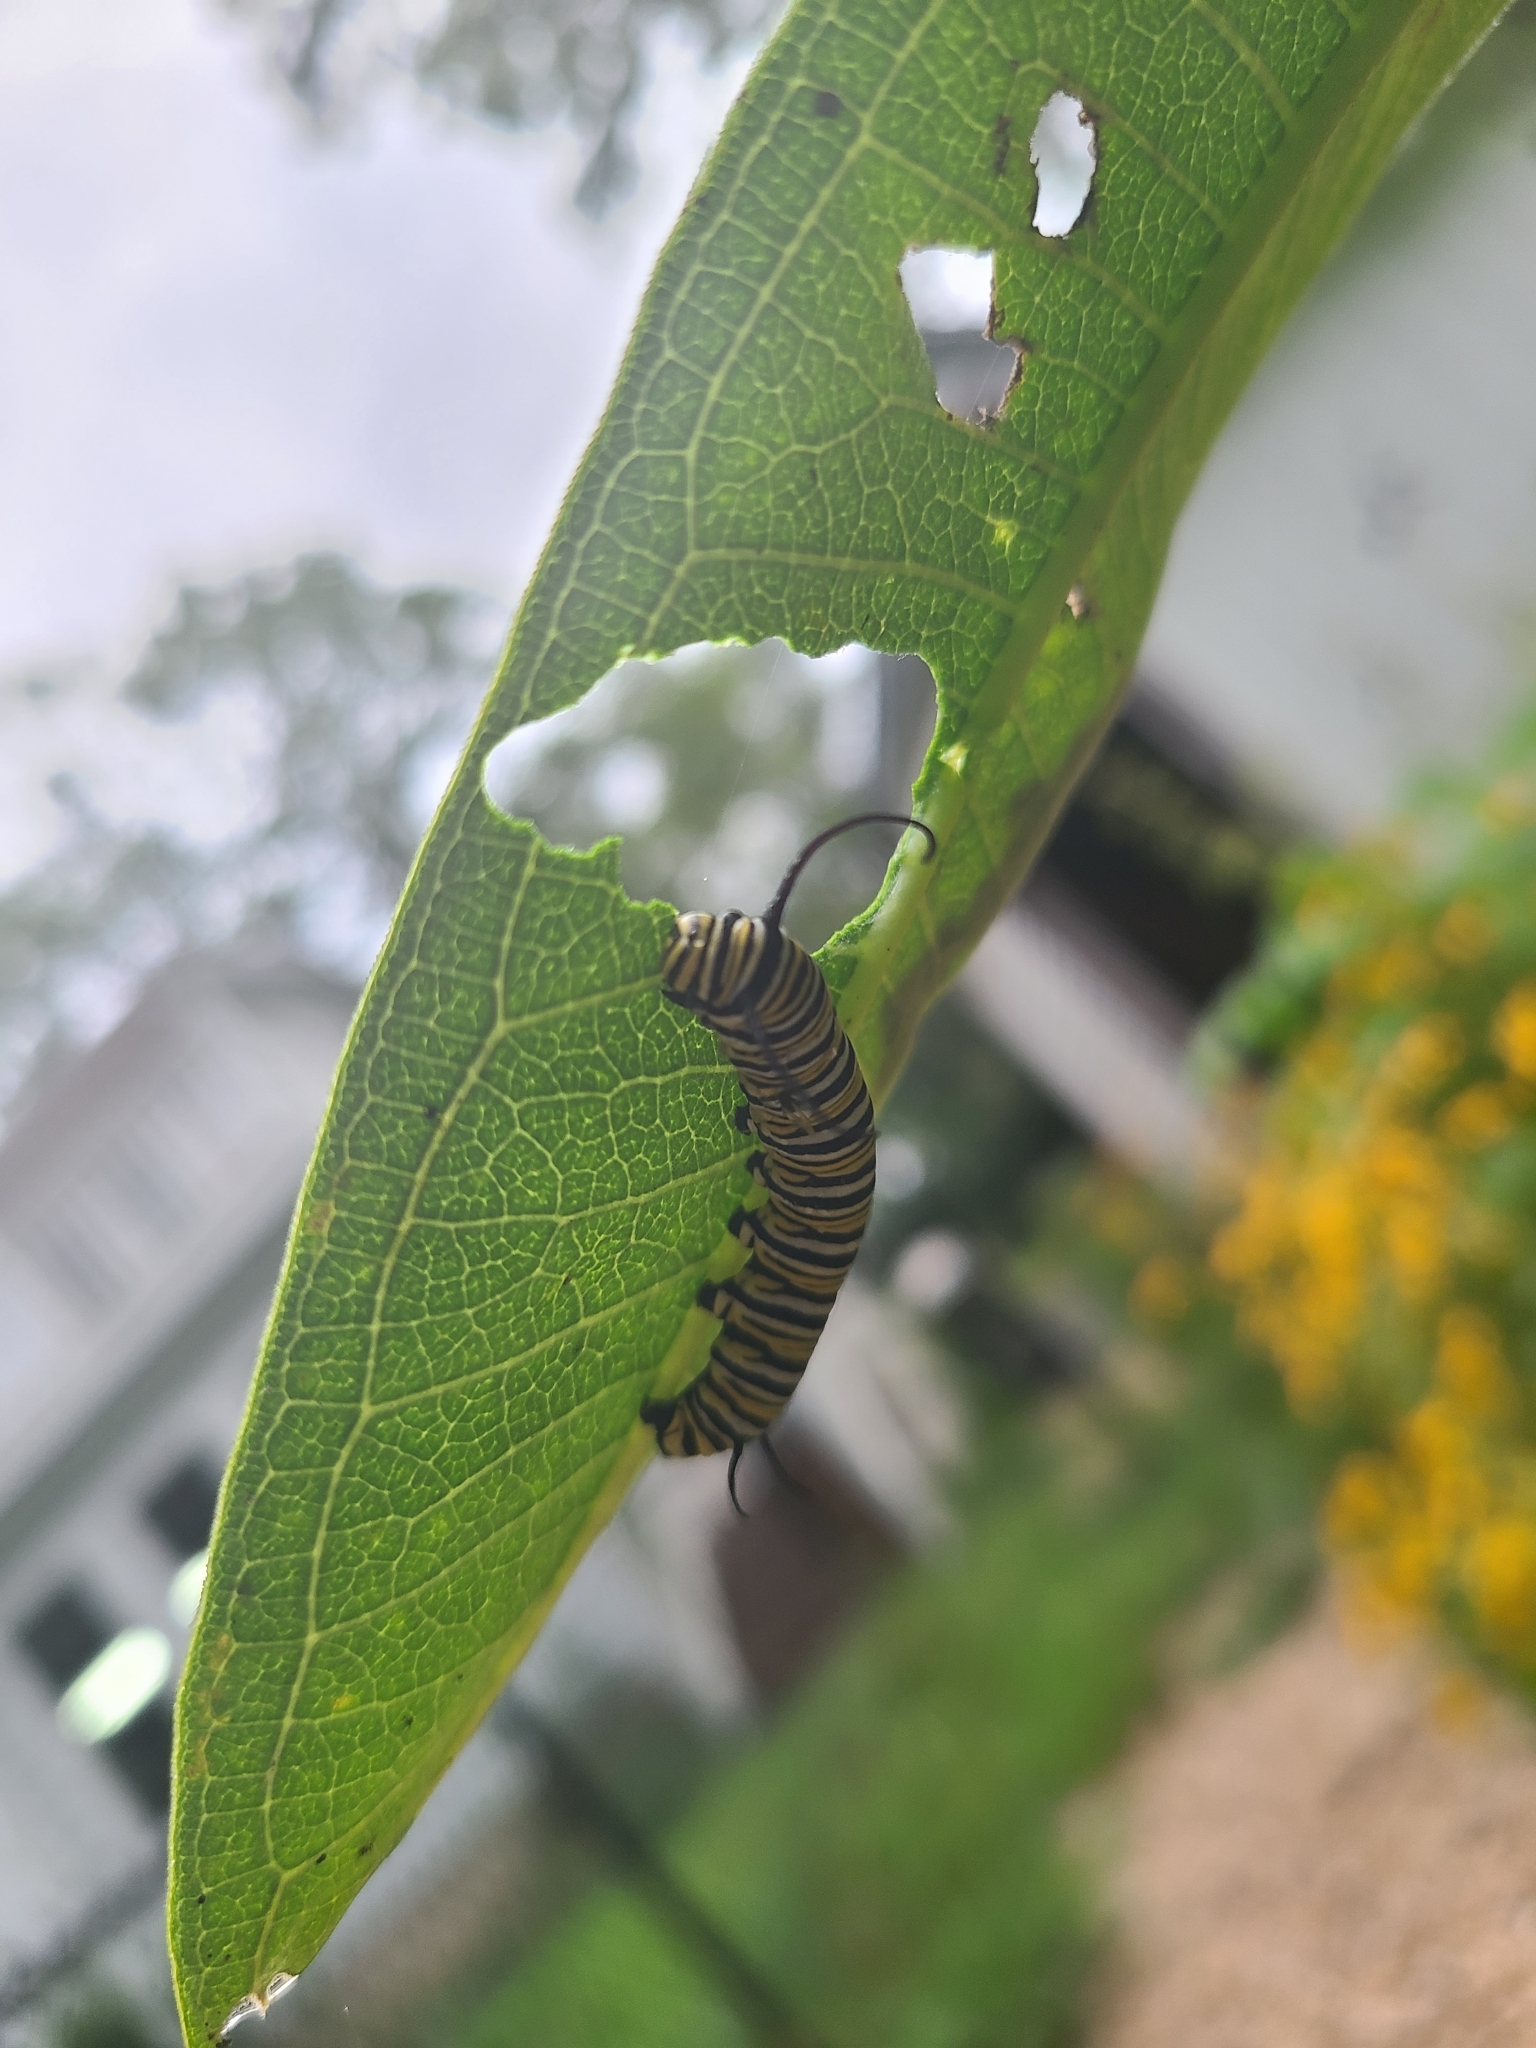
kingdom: Animalia
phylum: Arthropoda
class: Insecta
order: Lepidoptera
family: Nymphalidae
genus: Danaus
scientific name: Danaus plexippus
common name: Monarch
